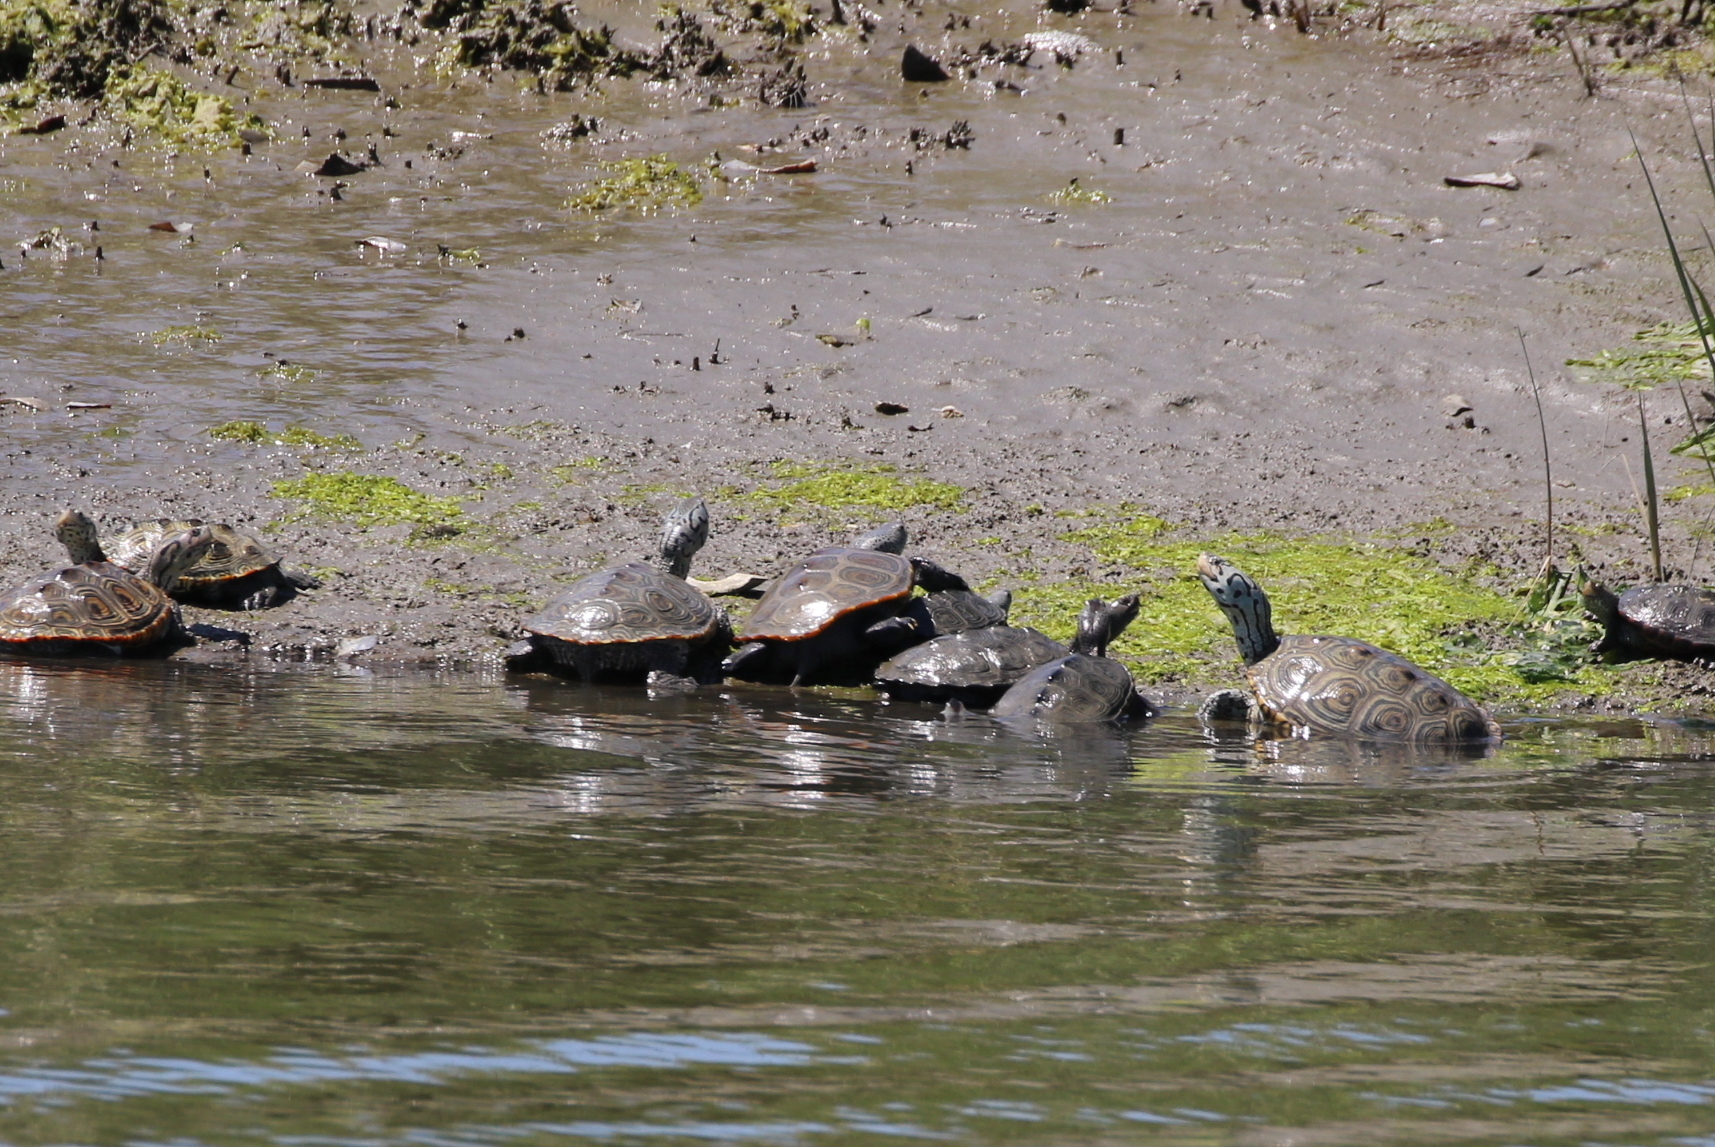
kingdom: Animalia
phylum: Chordata
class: Testudines
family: Emydidae
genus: Malaclemys
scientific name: Malaclemys terrapin
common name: Diamondback terrapin
